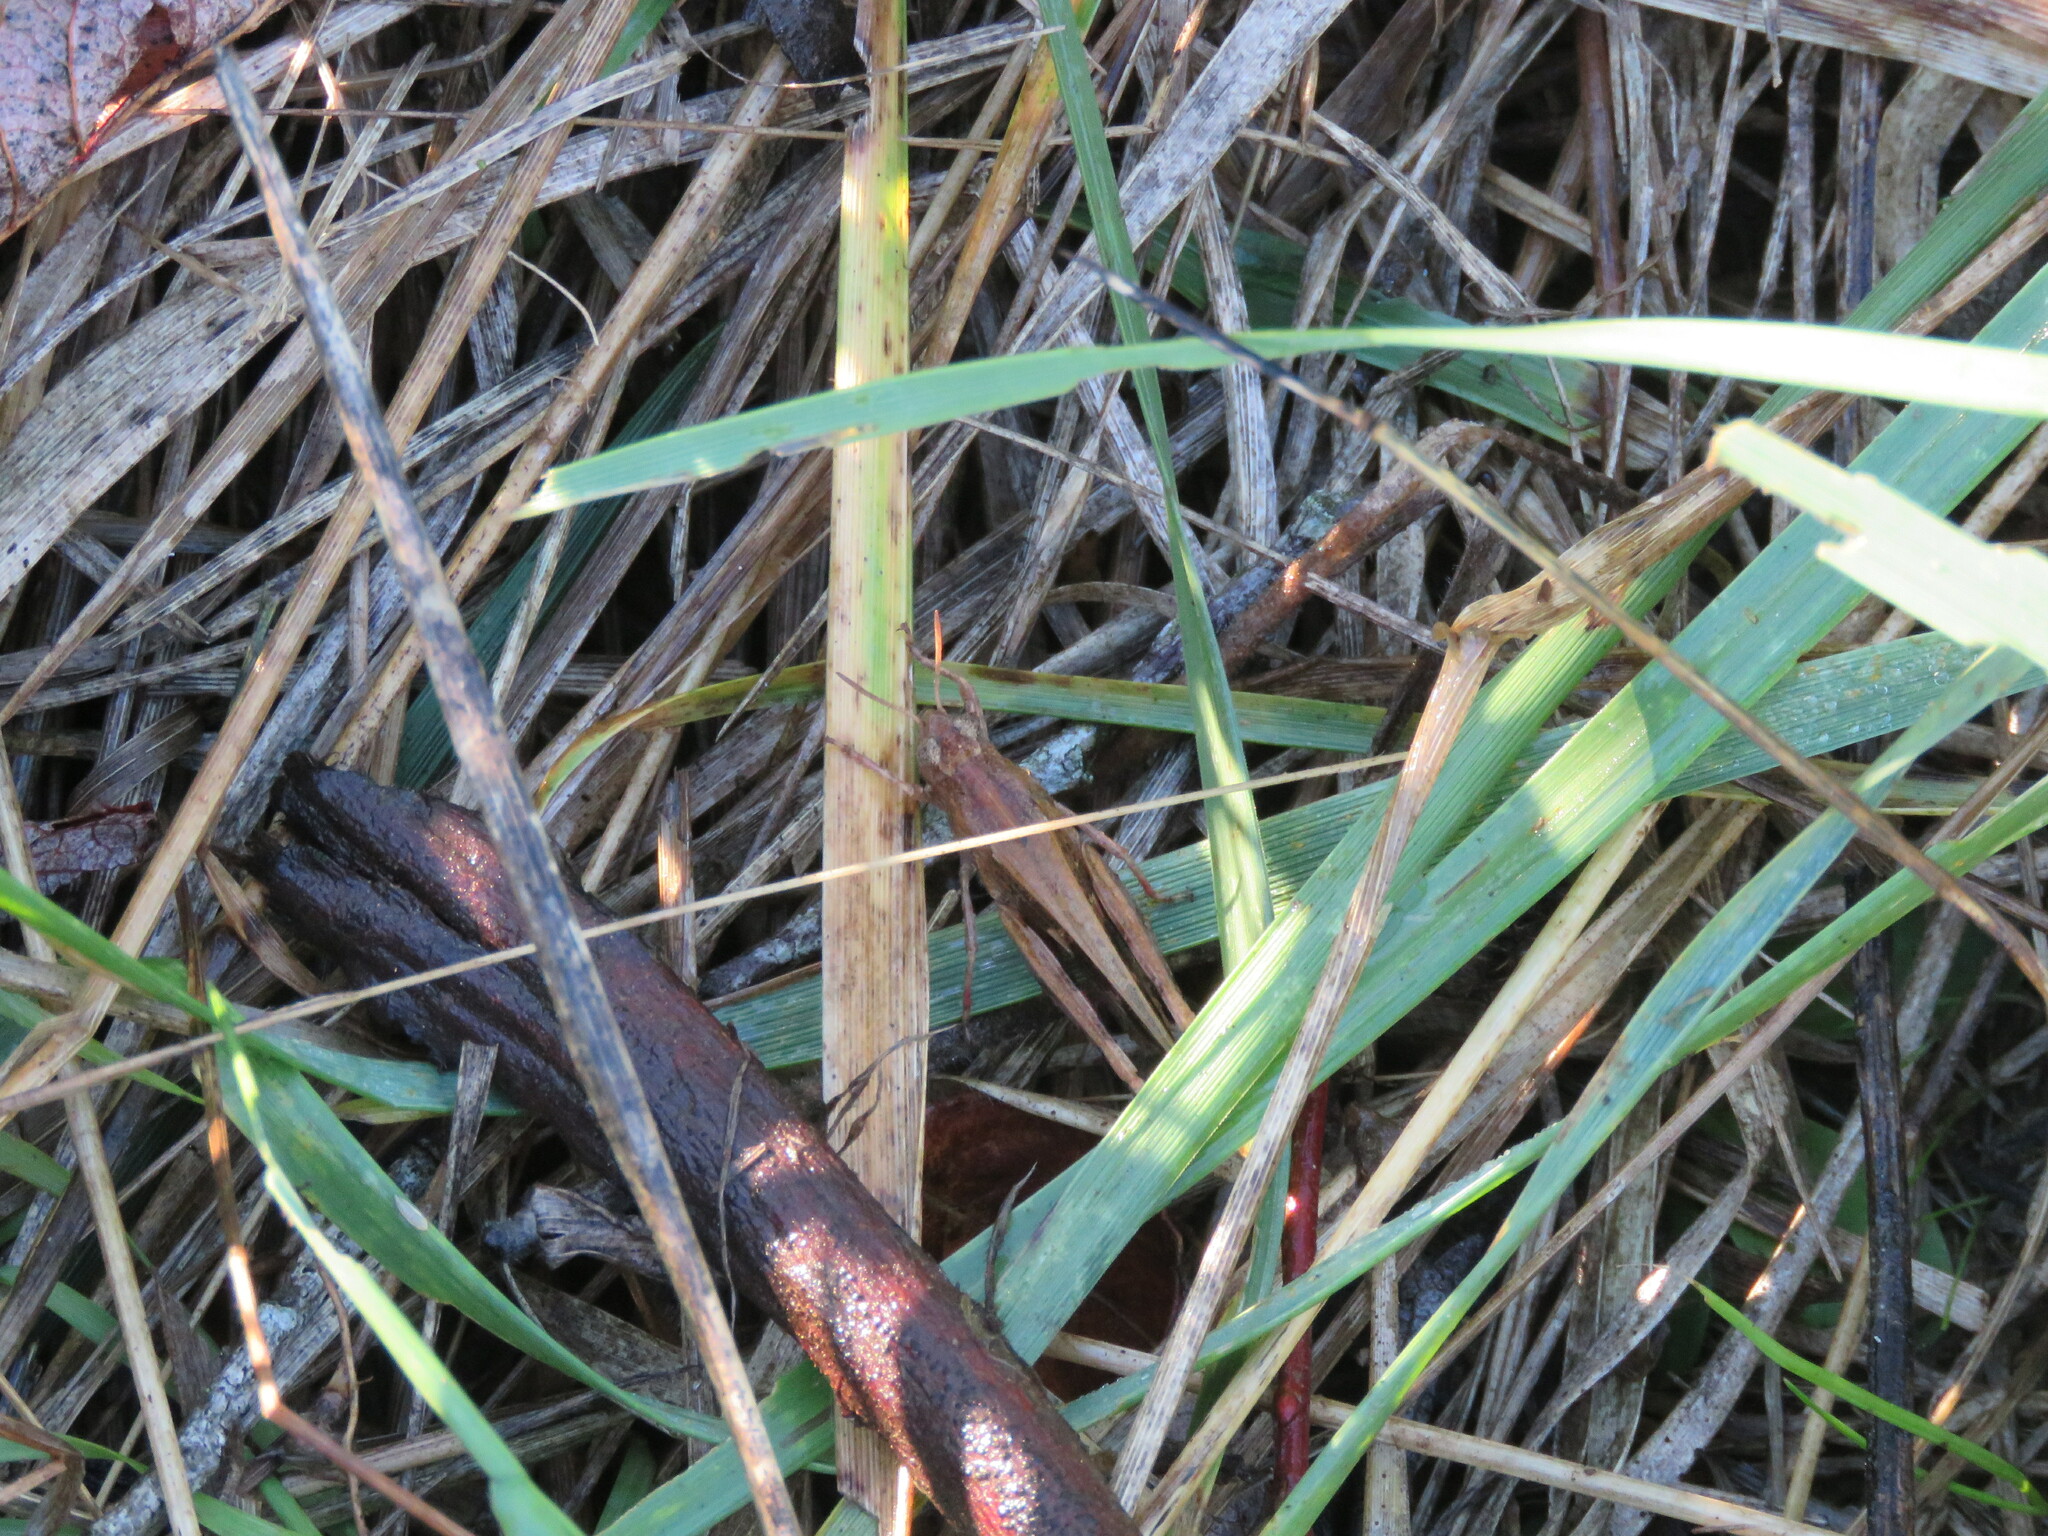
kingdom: Animalia
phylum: Arthropoda
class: Insecta
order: Orthoptera
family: Acrididae
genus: Aiolopus
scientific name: Aiolopus strepens
